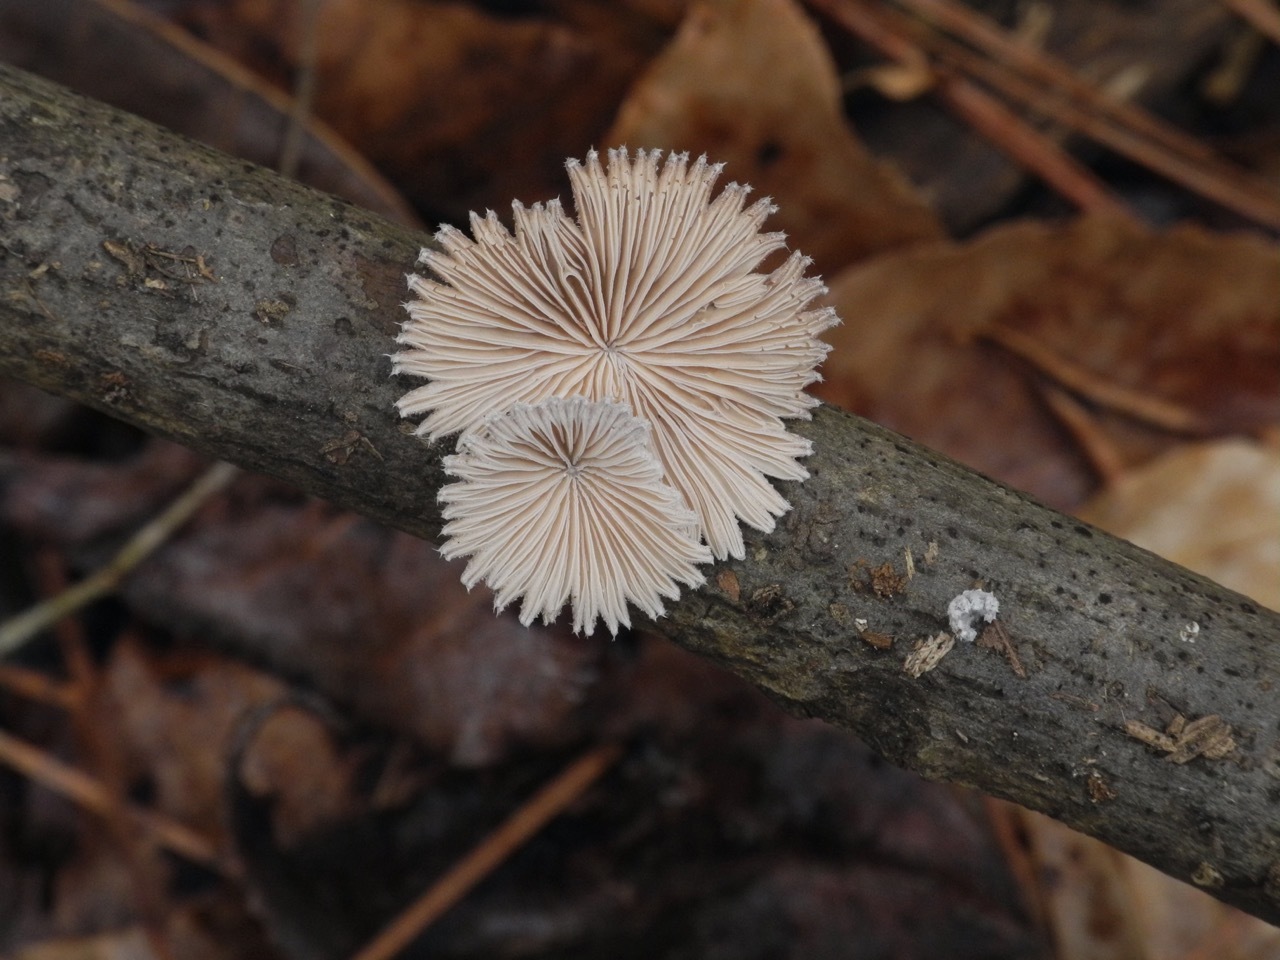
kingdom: Fungi
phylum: Basidiomycota
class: Agaricomycetes
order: Agaricales
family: Schizophyllaceae
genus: Schizophyllum
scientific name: Schizophyllum commune
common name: Common porecrust
